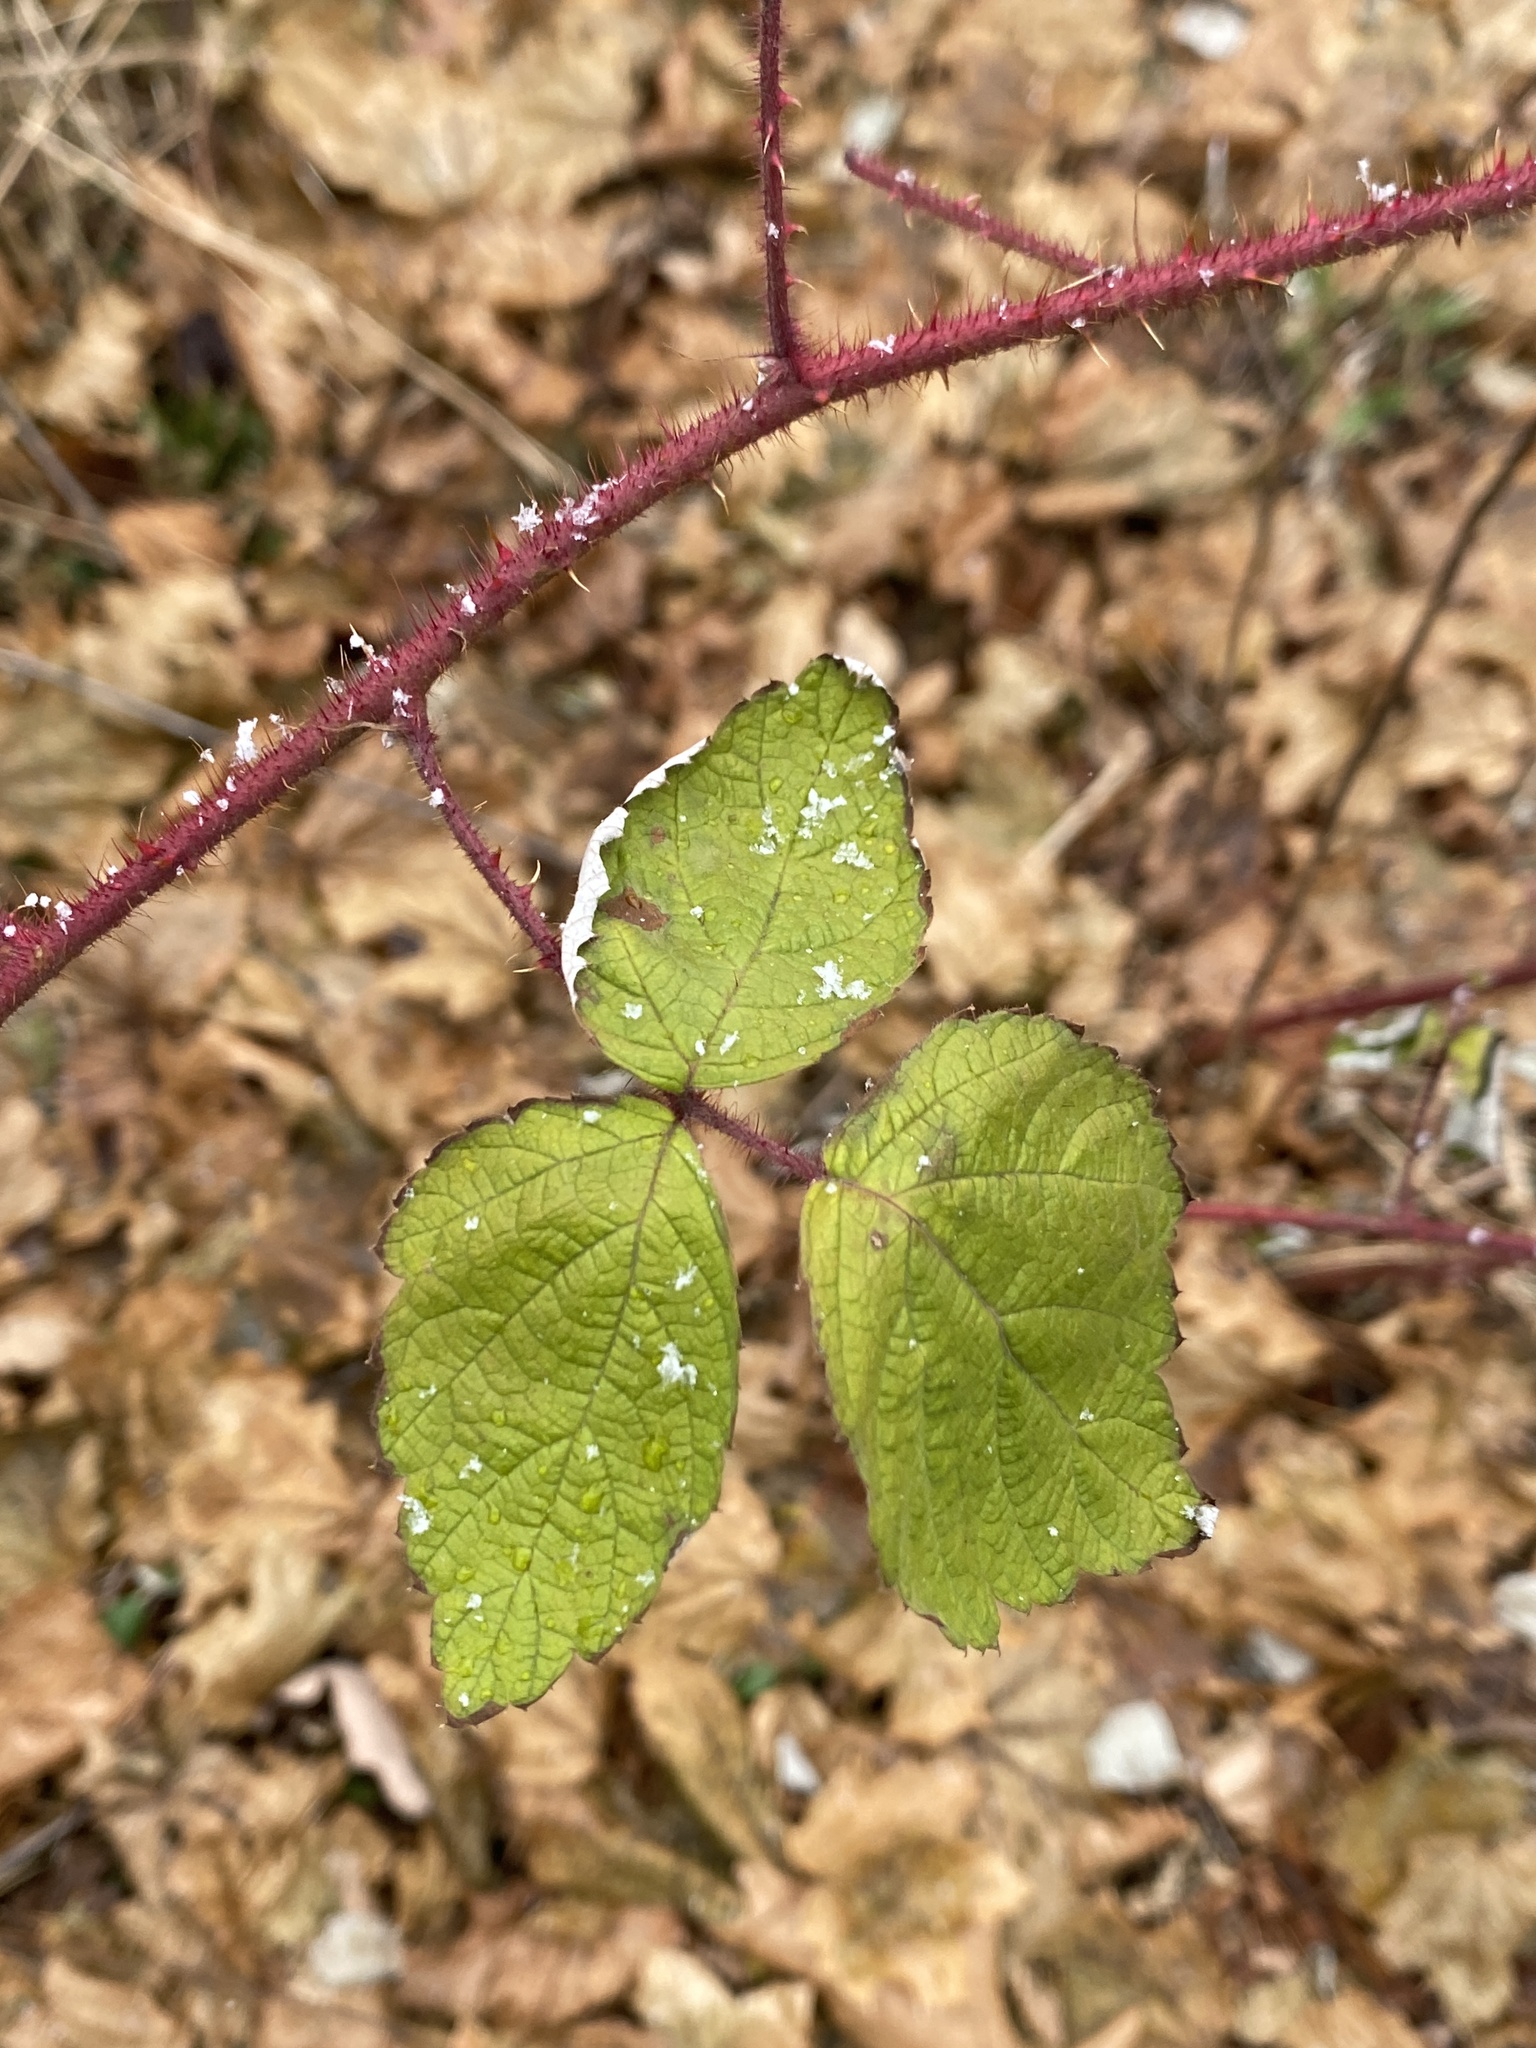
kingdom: Plantae
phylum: Tracheophyta
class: Magnoliopsida
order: Rosales
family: Rosaceae
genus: Rubus
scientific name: Rubus phoenicolasius
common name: Japanese wineberry
